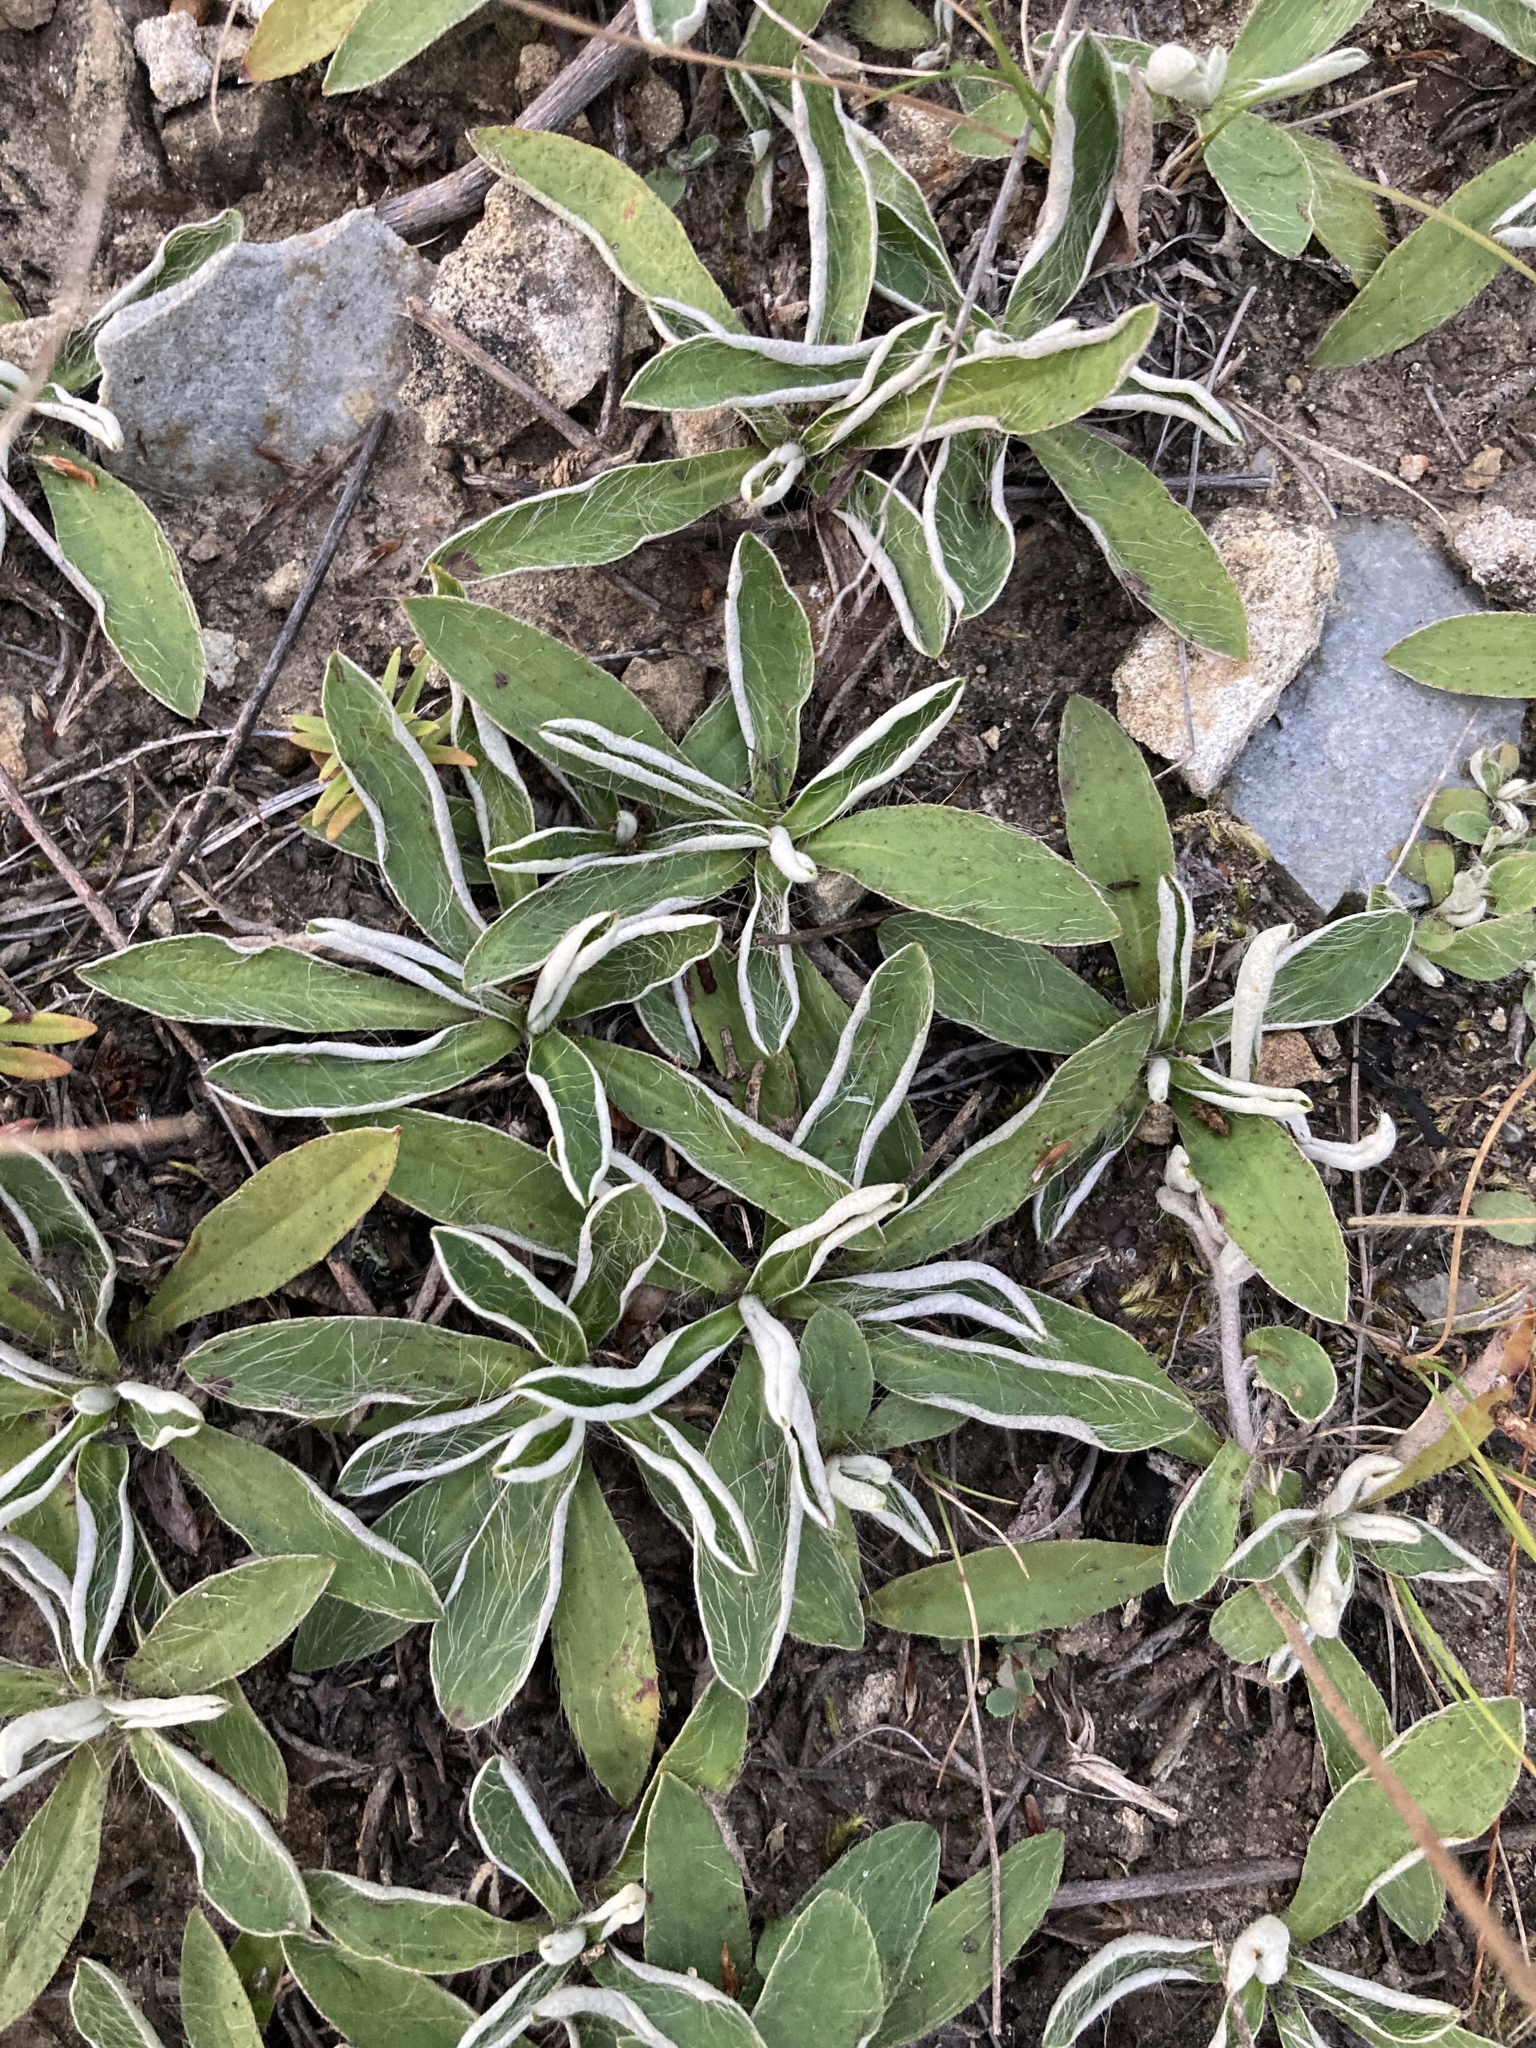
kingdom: Plantae
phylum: Tracheophyta
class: Magnoliopsida
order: Asterales
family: Asteraceae
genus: Pilosella
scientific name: Pilosella officinarum
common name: Mouse-ear hawkweed
